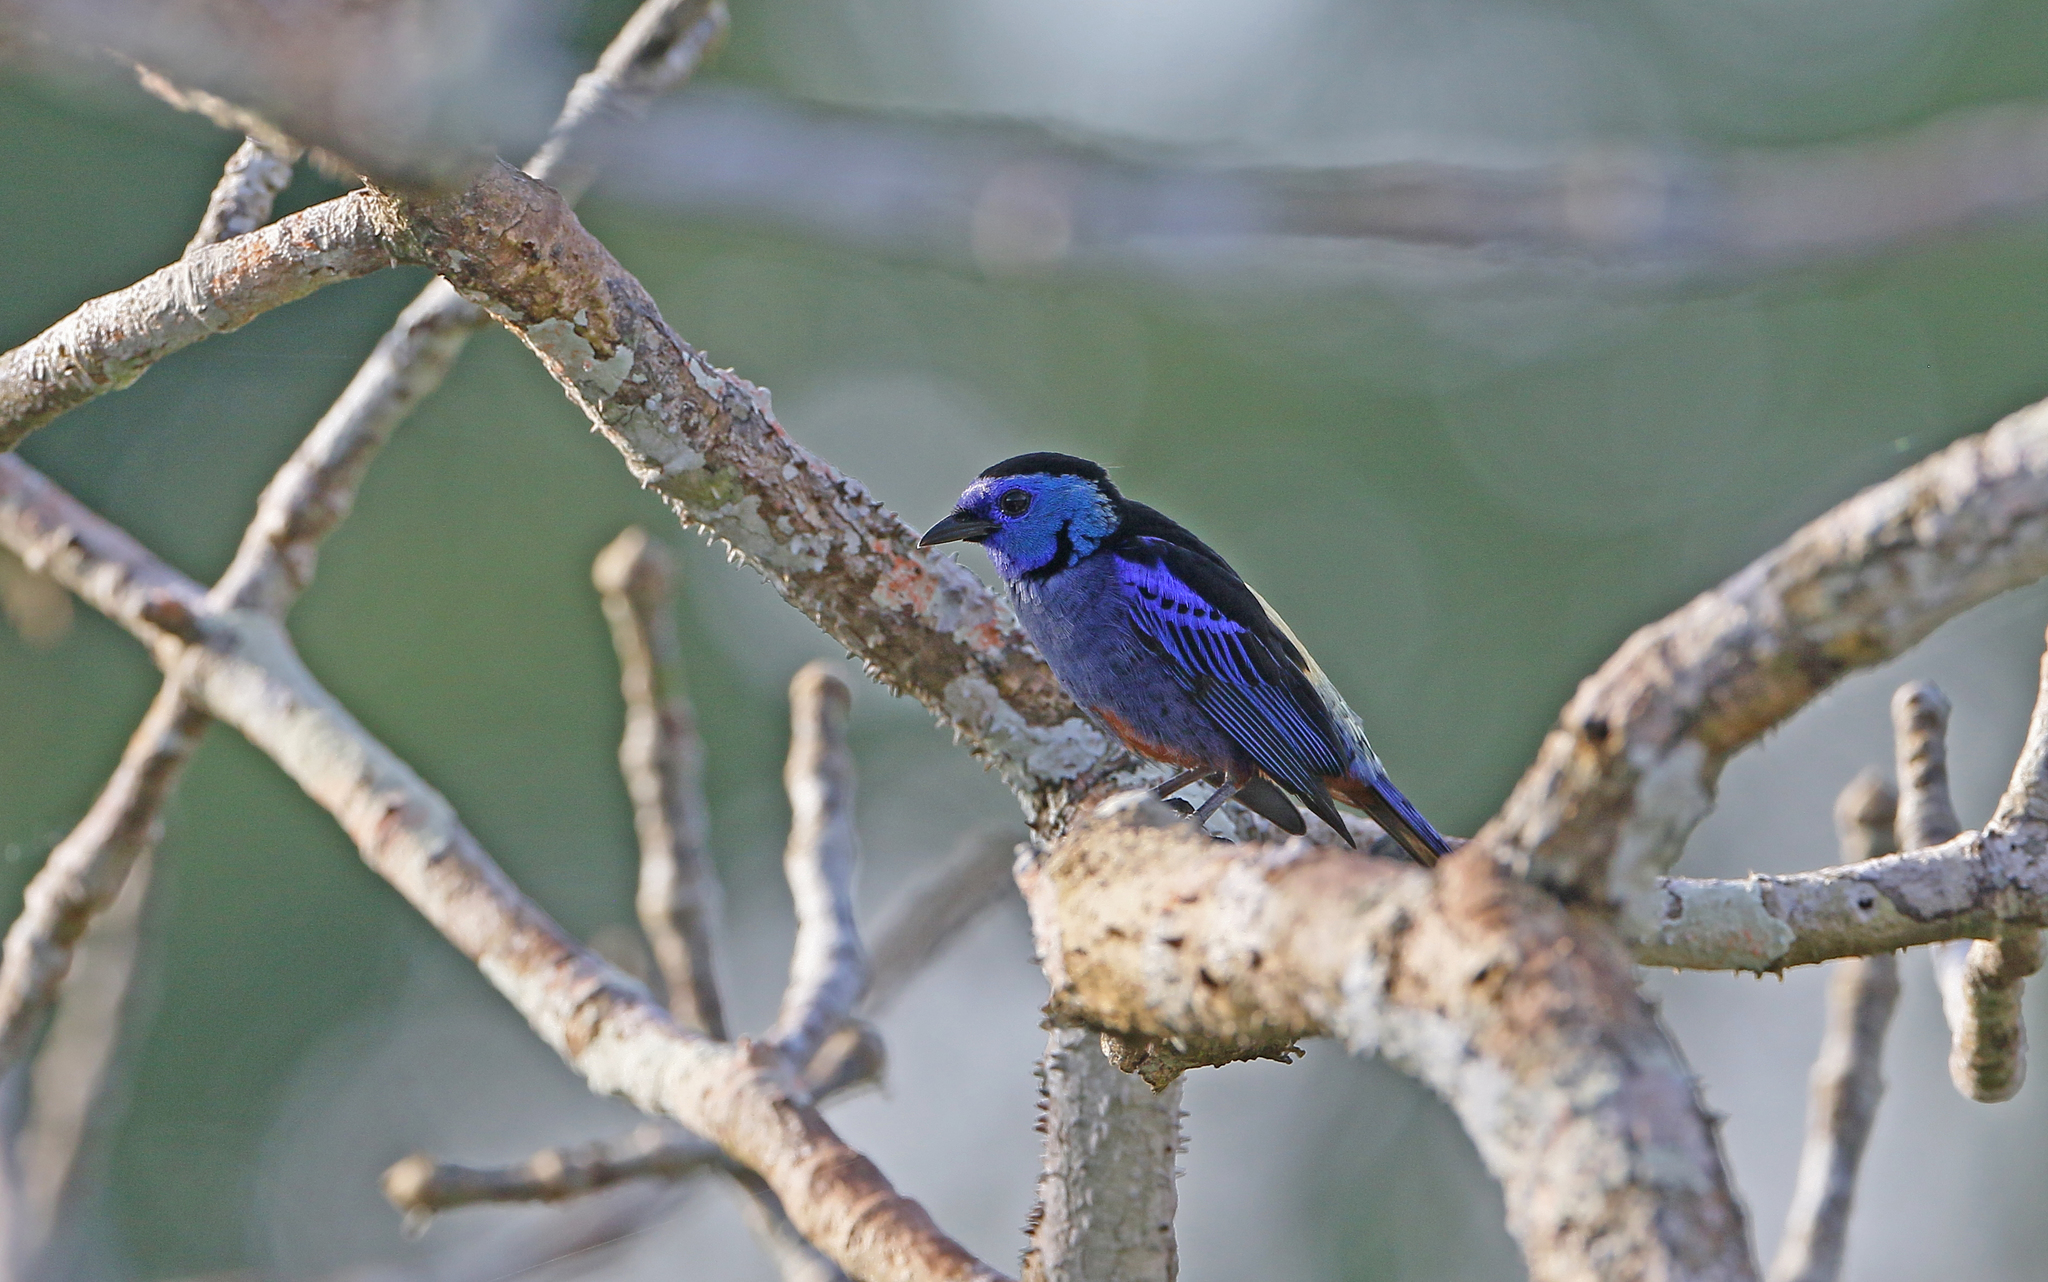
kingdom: Animalia
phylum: Chordata
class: Aves
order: Passeriformes
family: Thraupidae
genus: Tangara
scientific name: Tangara velia
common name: Opal-rumped tanager
